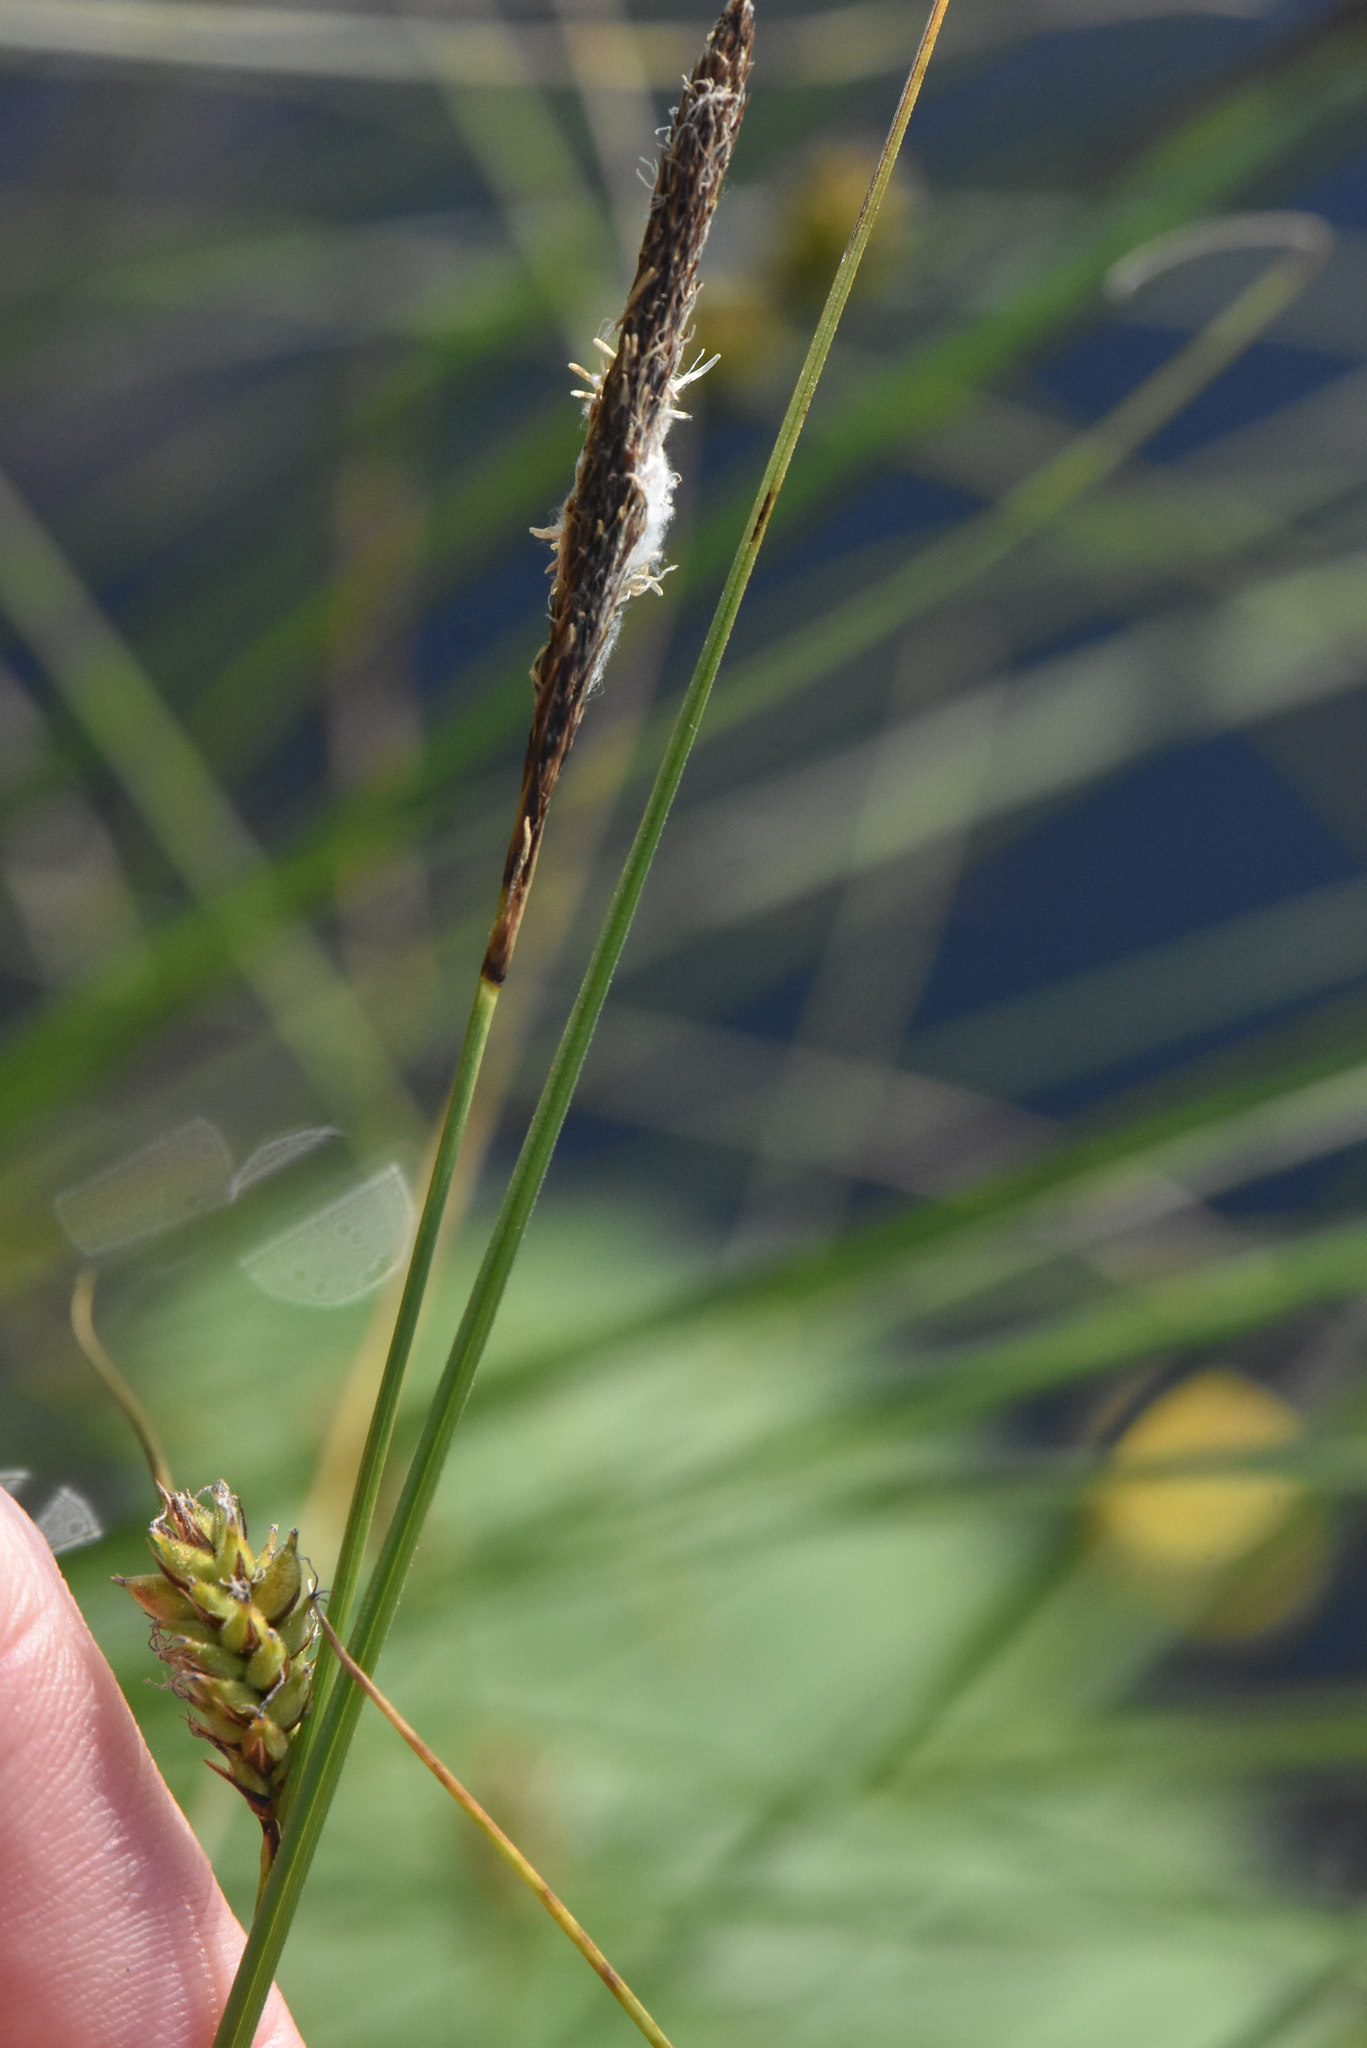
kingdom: Plantae
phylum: Tracheophyta
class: Liliopsida
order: Poales
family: Cyperaceae
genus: Carex
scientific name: Carex lasiocarpa
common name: Slender sedge
